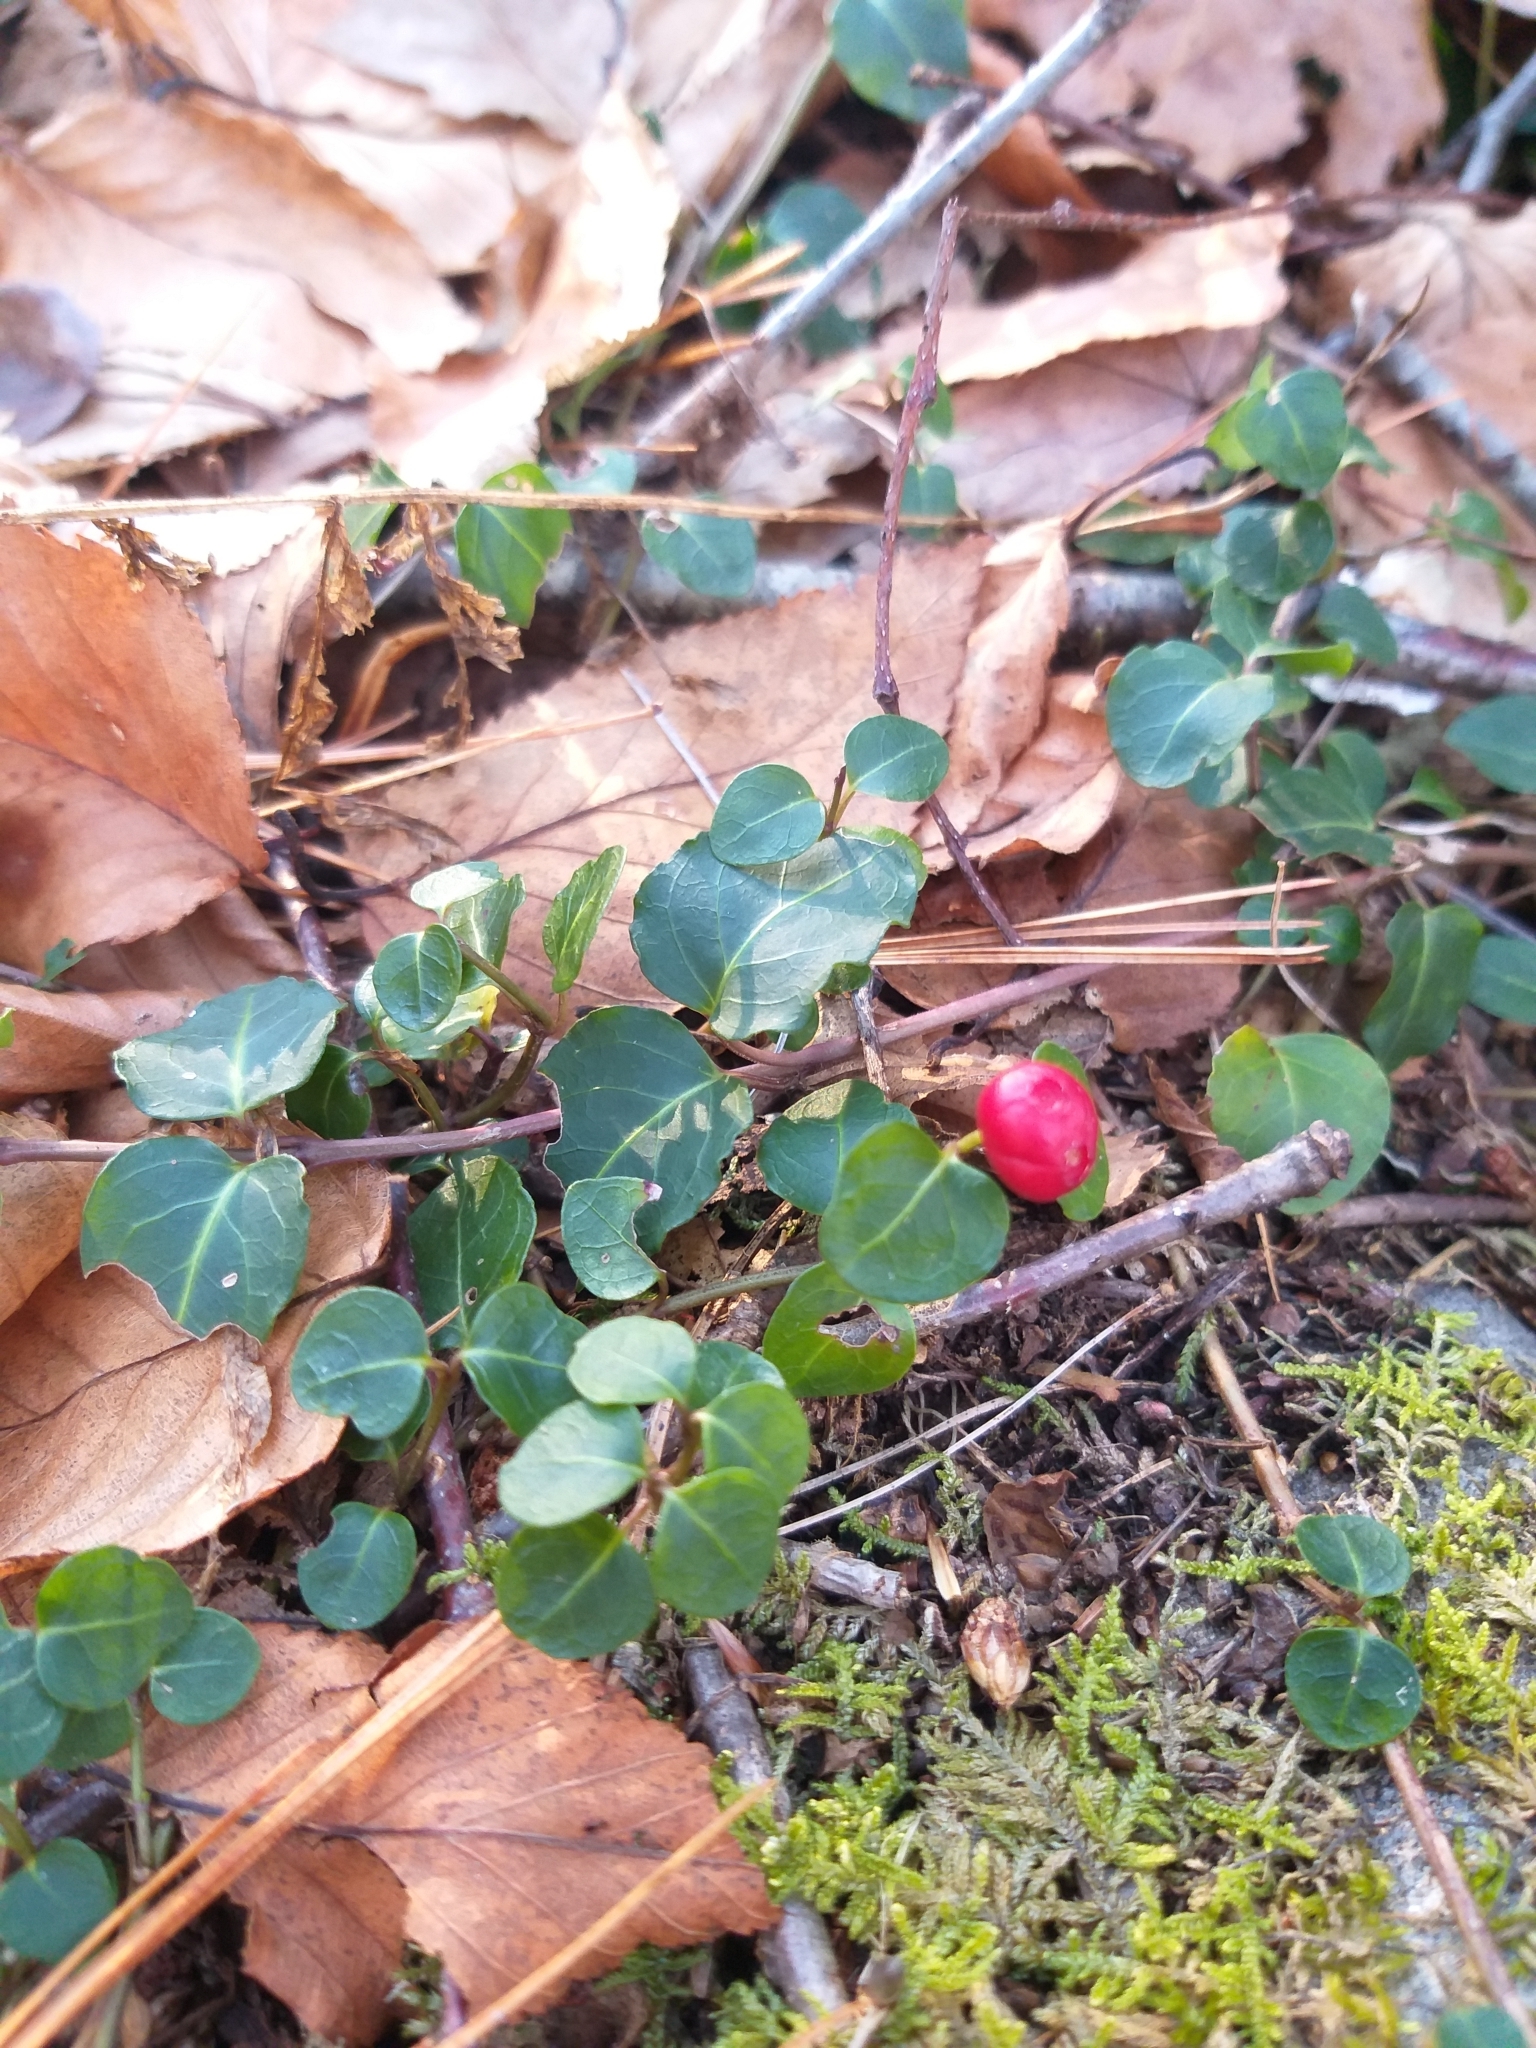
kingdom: Plantae
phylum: Tracheophyta
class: Magnoliopsida
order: Gentianales
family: Rubiaceae
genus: Mitchella
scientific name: Mitchella repens
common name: Partridge-berry
